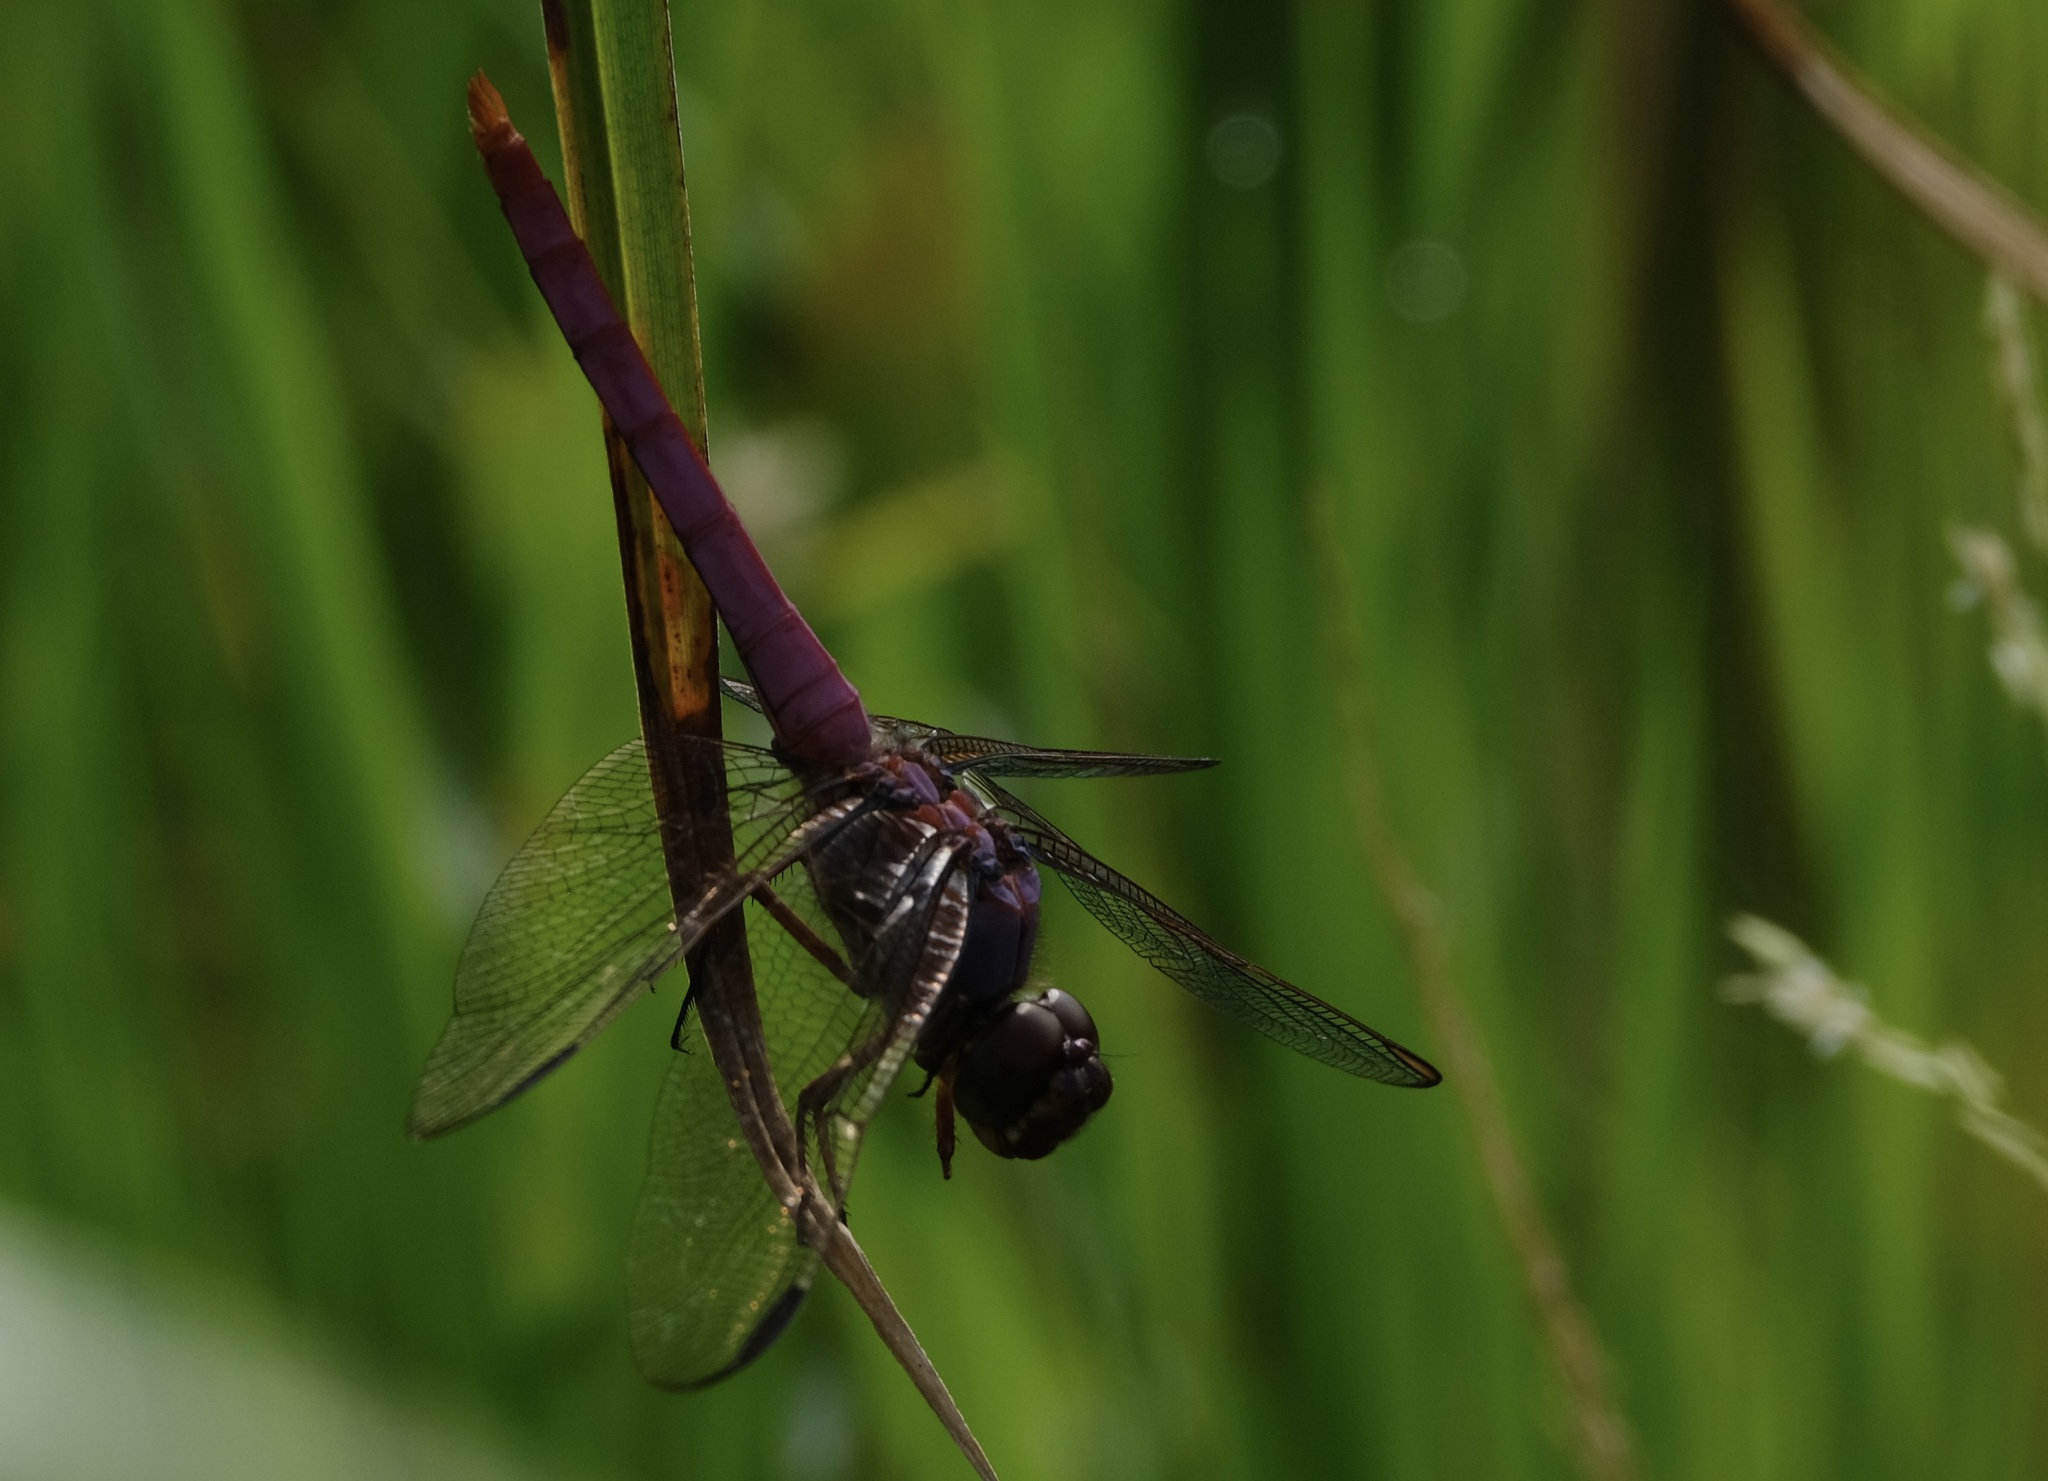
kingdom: Animalia
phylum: Arthropoda
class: Insecta
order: Odonata
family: Libellulidae
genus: Orthemis
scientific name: Orthemis ferruginea
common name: Roseate skimmer
